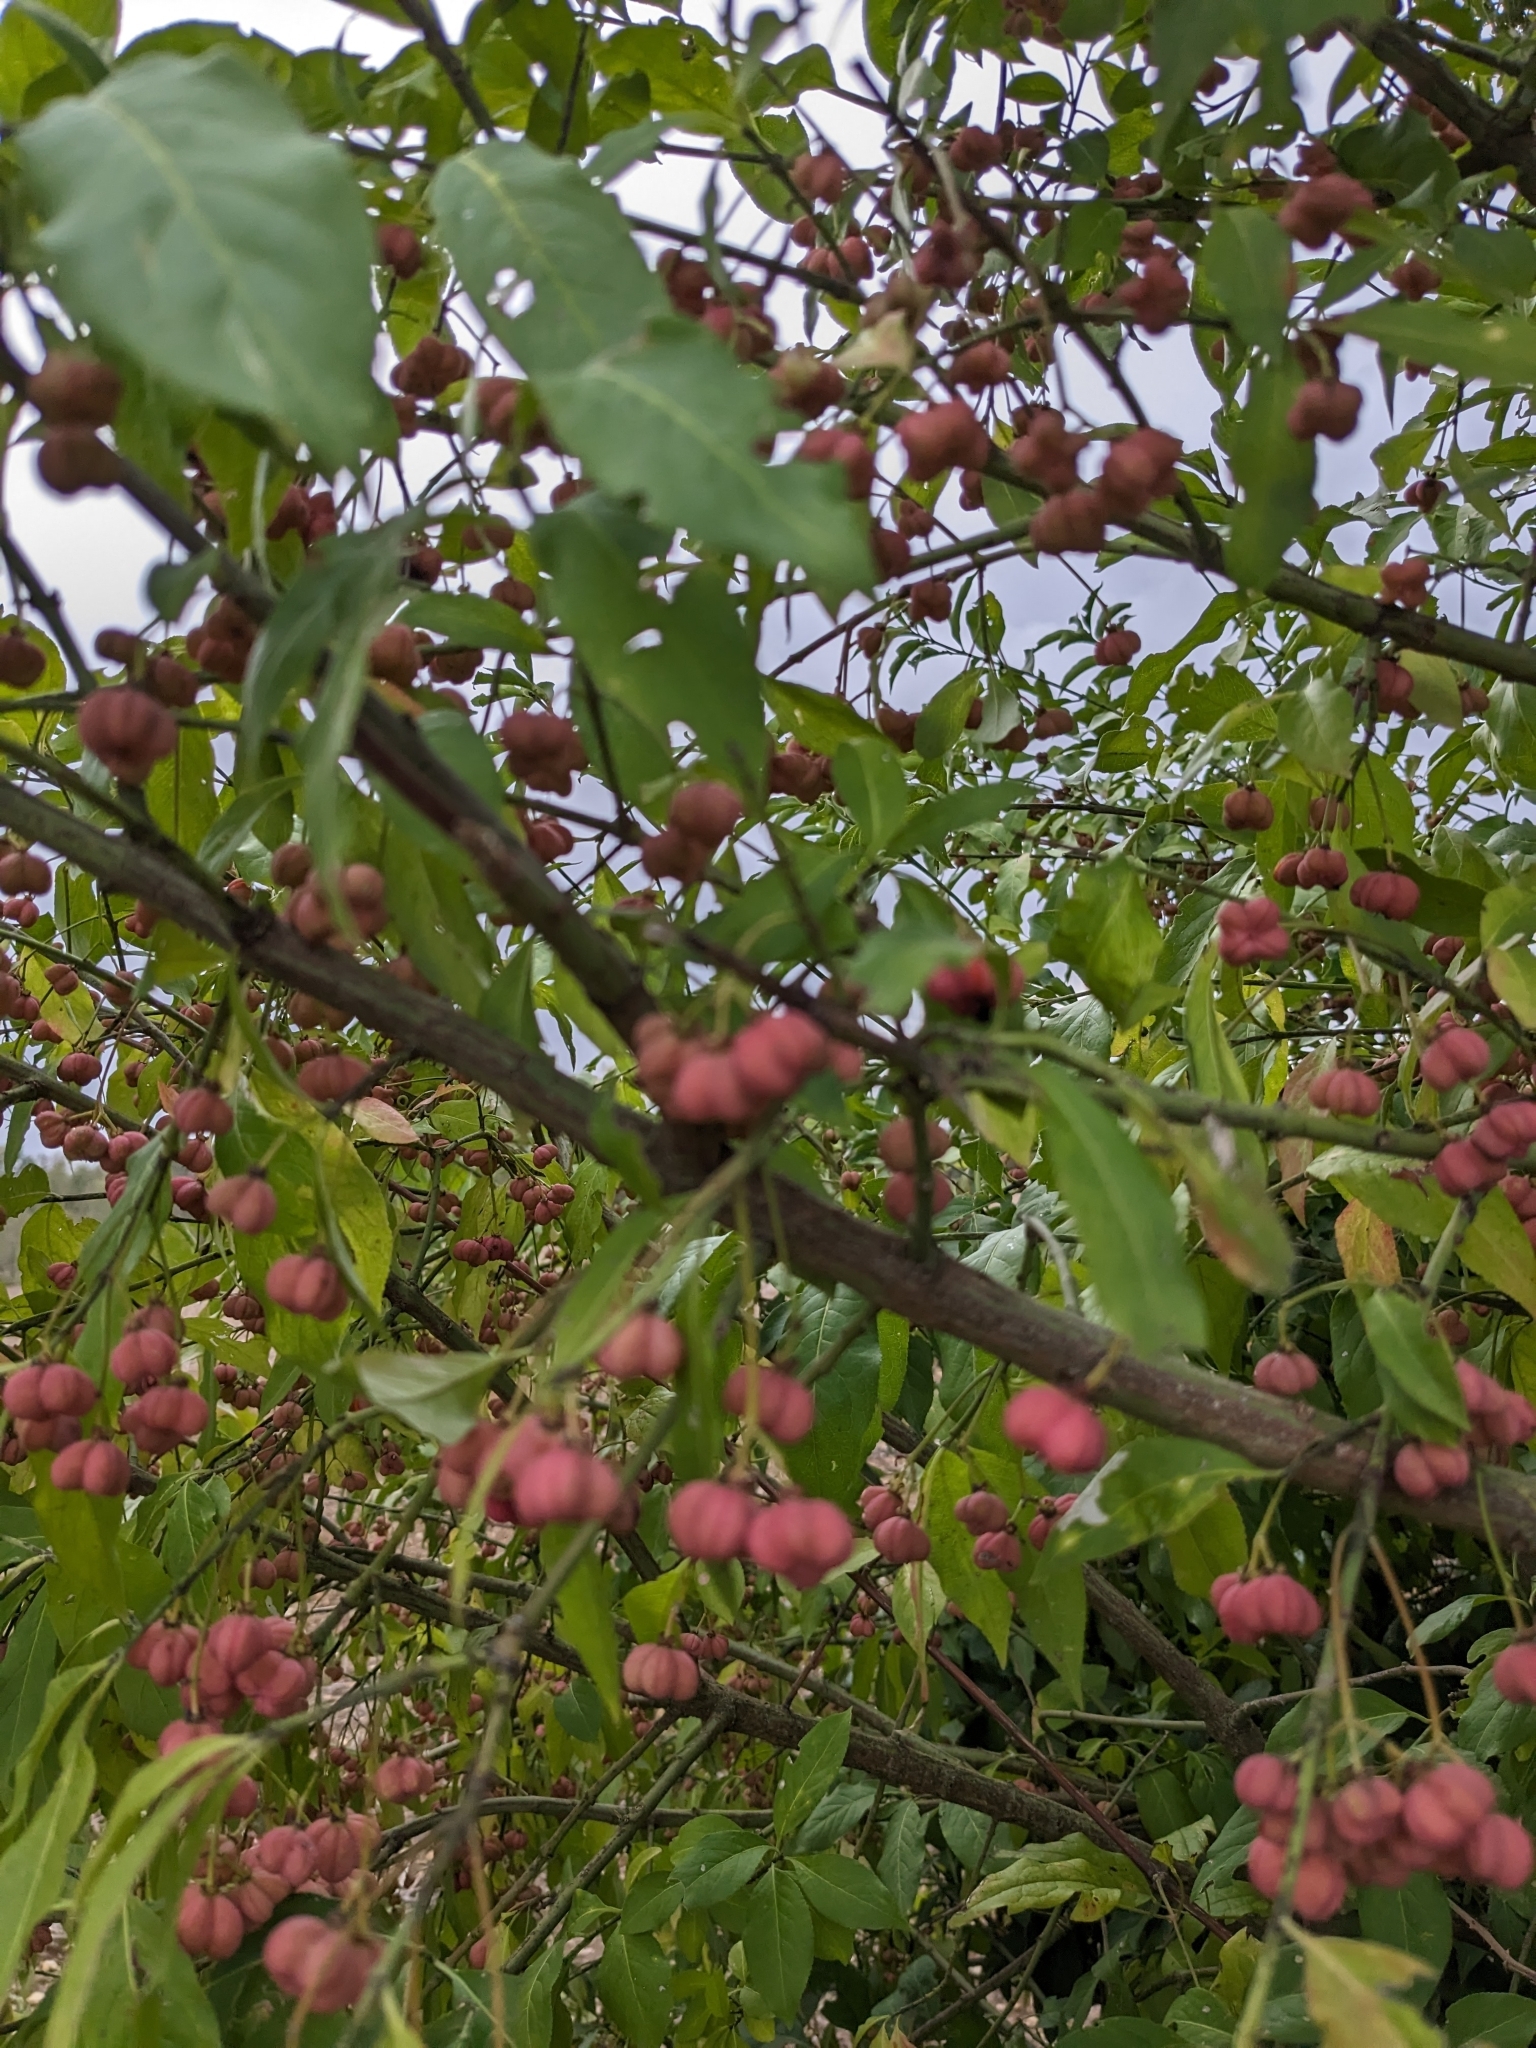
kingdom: Plantae
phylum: Tracheophyta
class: Magnoliopsida
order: Celastrales
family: Celastraceae
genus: Euonymus
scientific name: Euonymus europaeus
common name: Spindle
